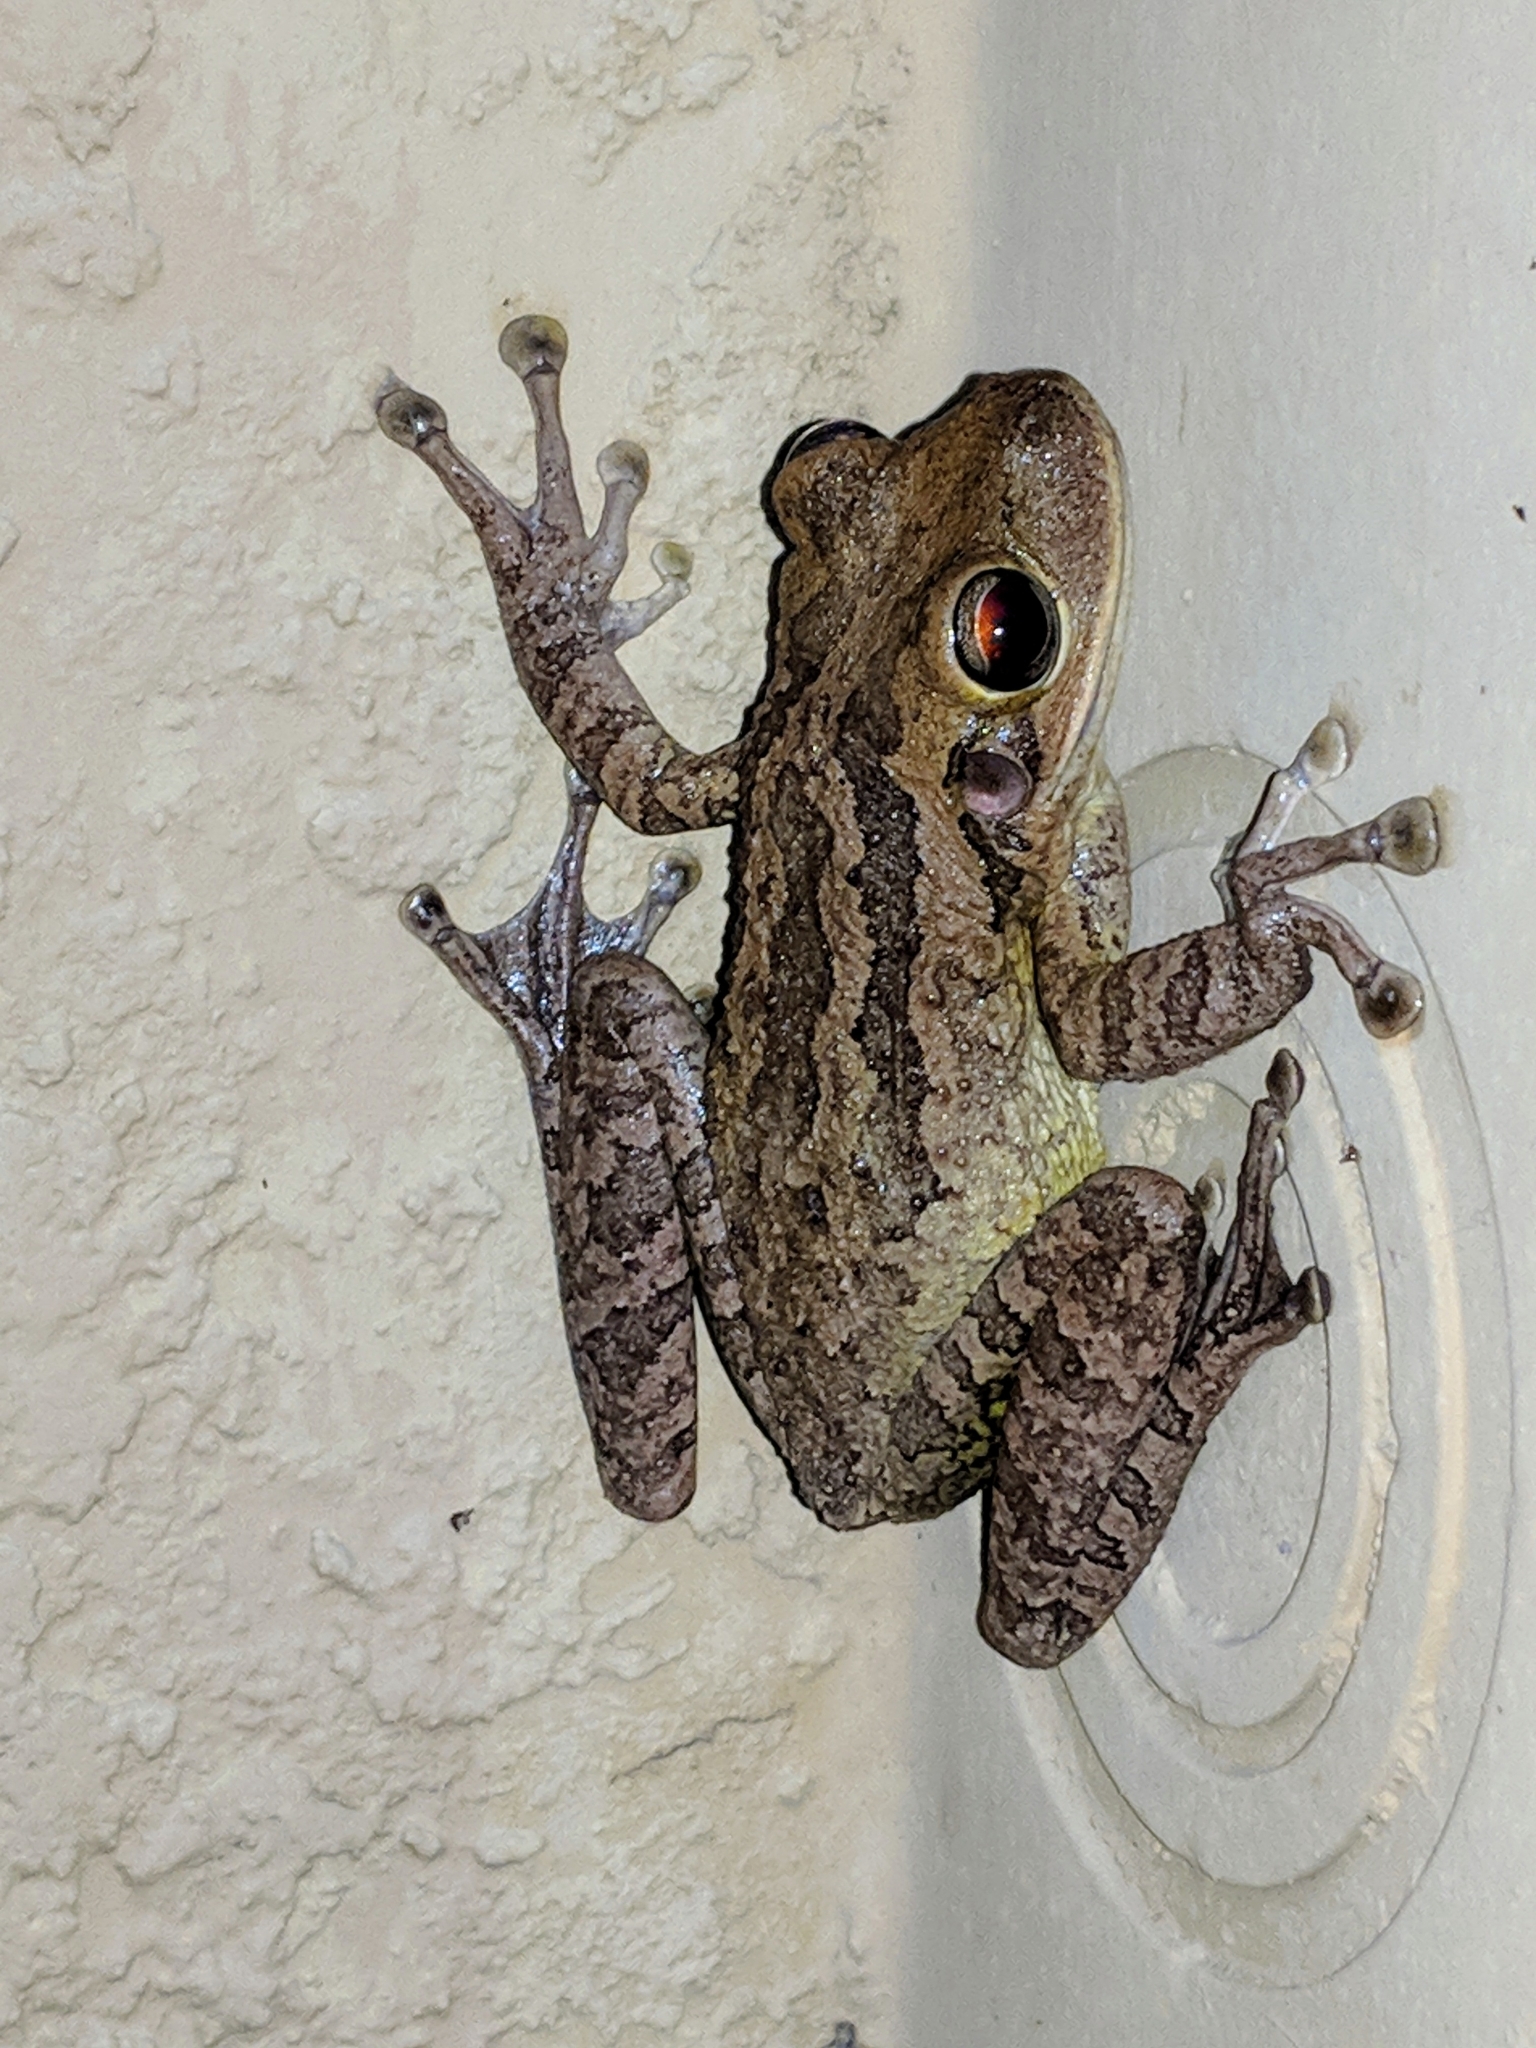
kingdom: Animalia
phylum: Chordata
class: Amphibia
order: Anura
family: Hylidae
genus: Osteopilus
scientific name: Osteopilus septentrionalis
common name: Cuban treefrog
